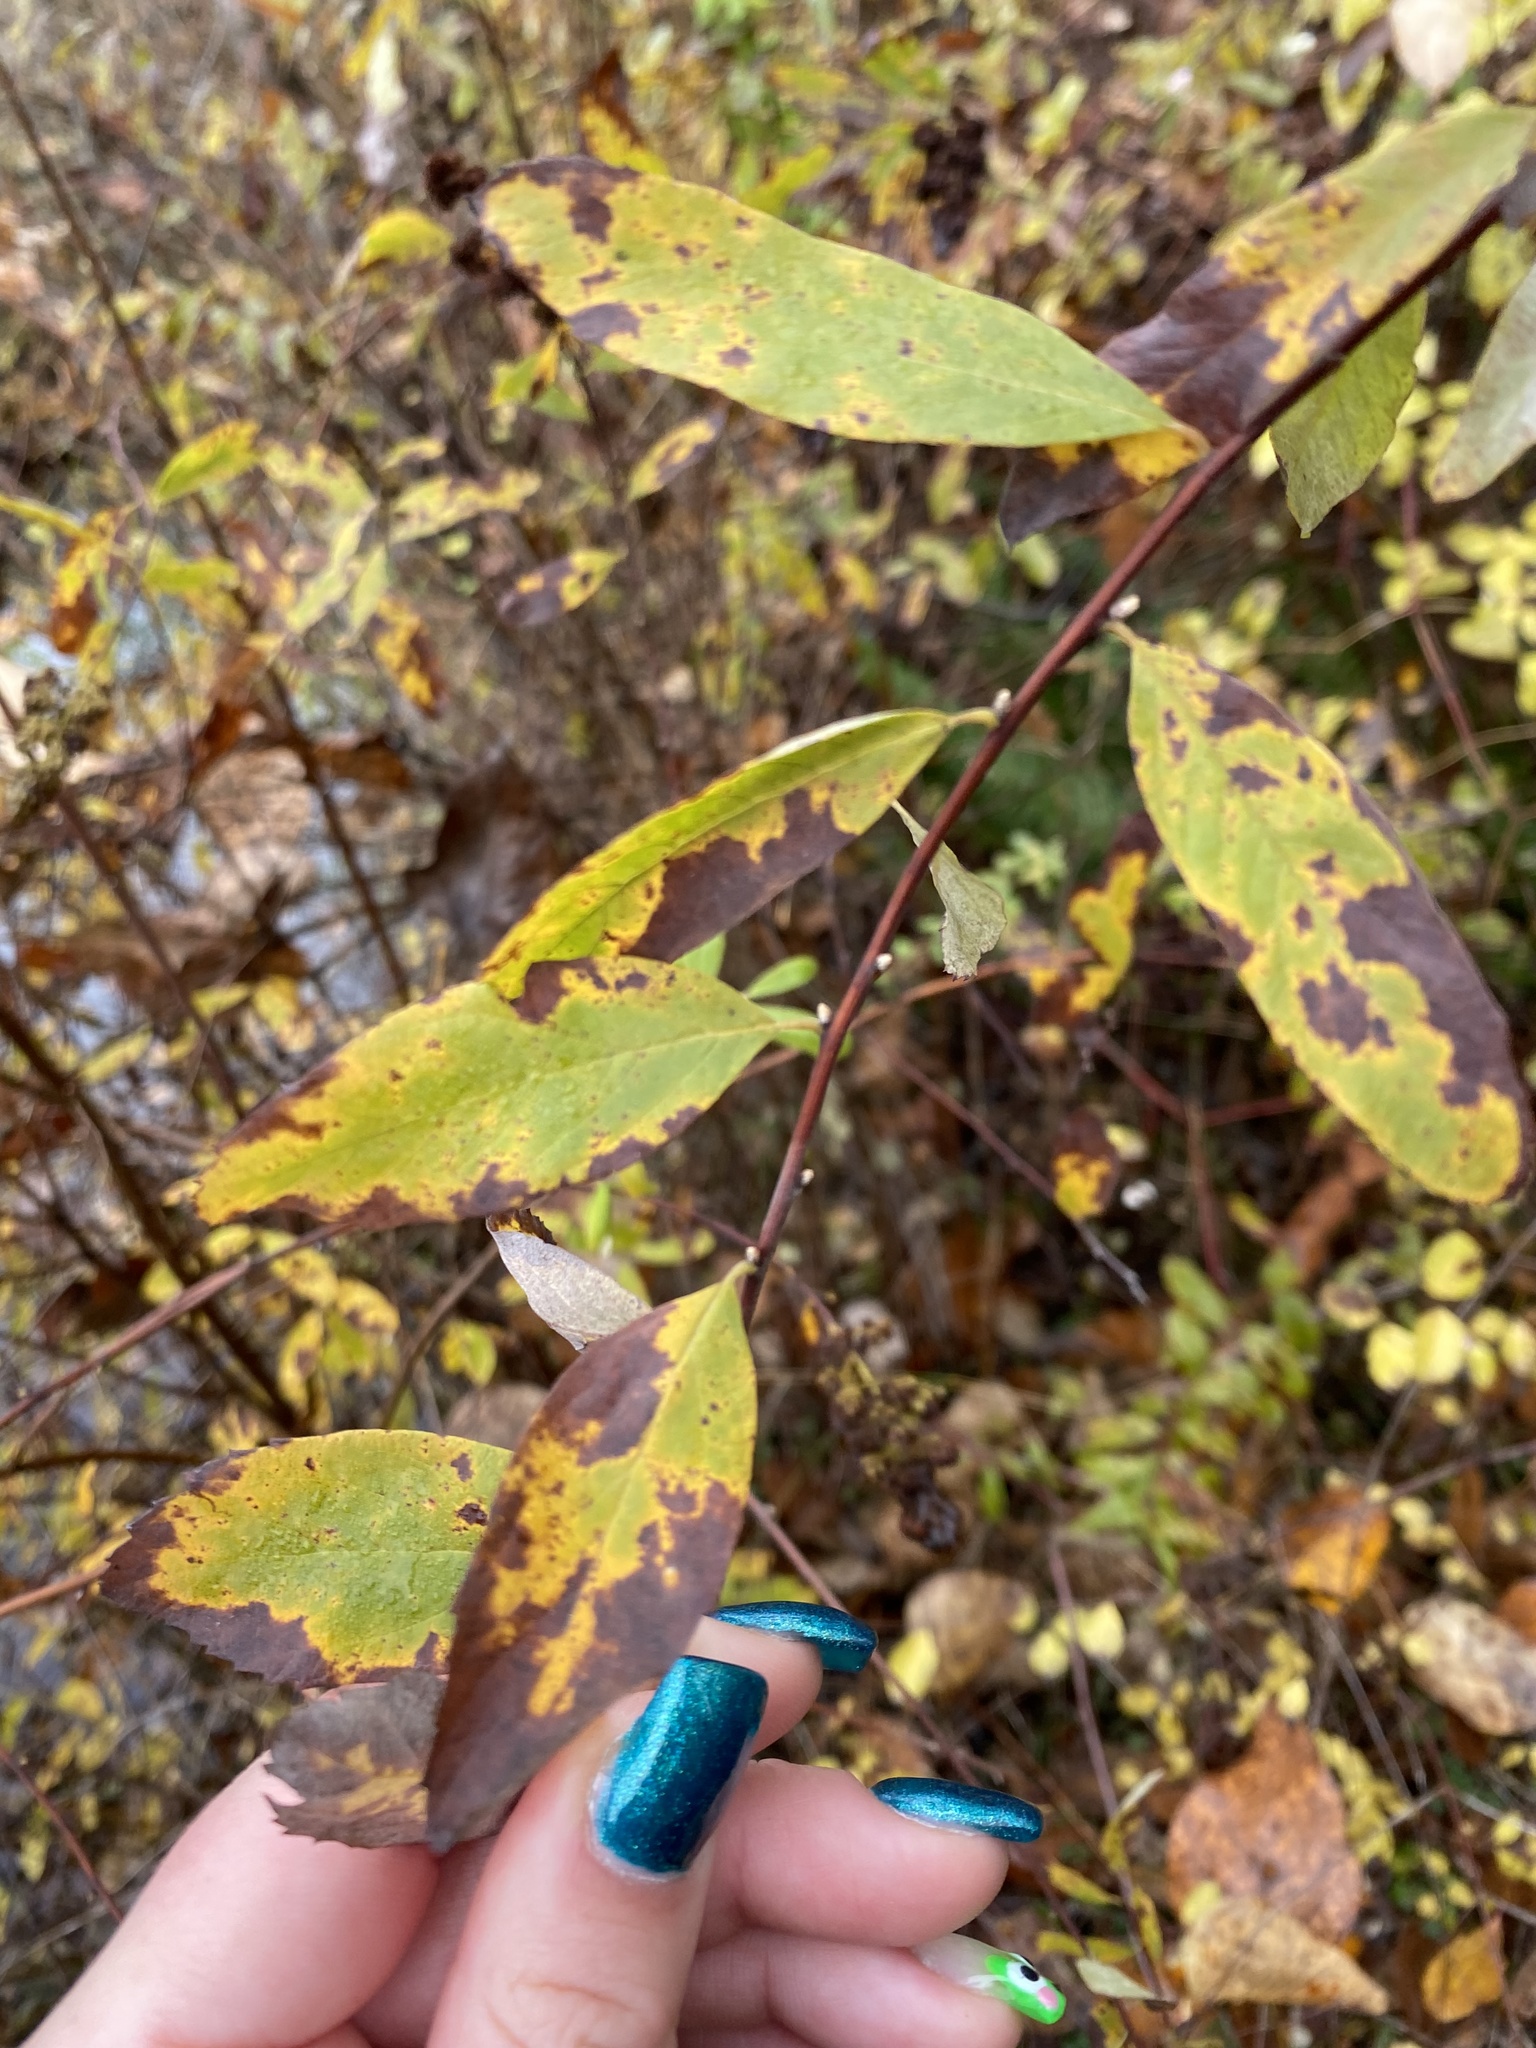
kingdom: Plantae
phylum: Tracheophyta
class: Magnoliopsida
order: Rosales
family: Rosaceae
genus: Spiraea
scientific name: Spiraea douglasii
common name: Steeplebush
